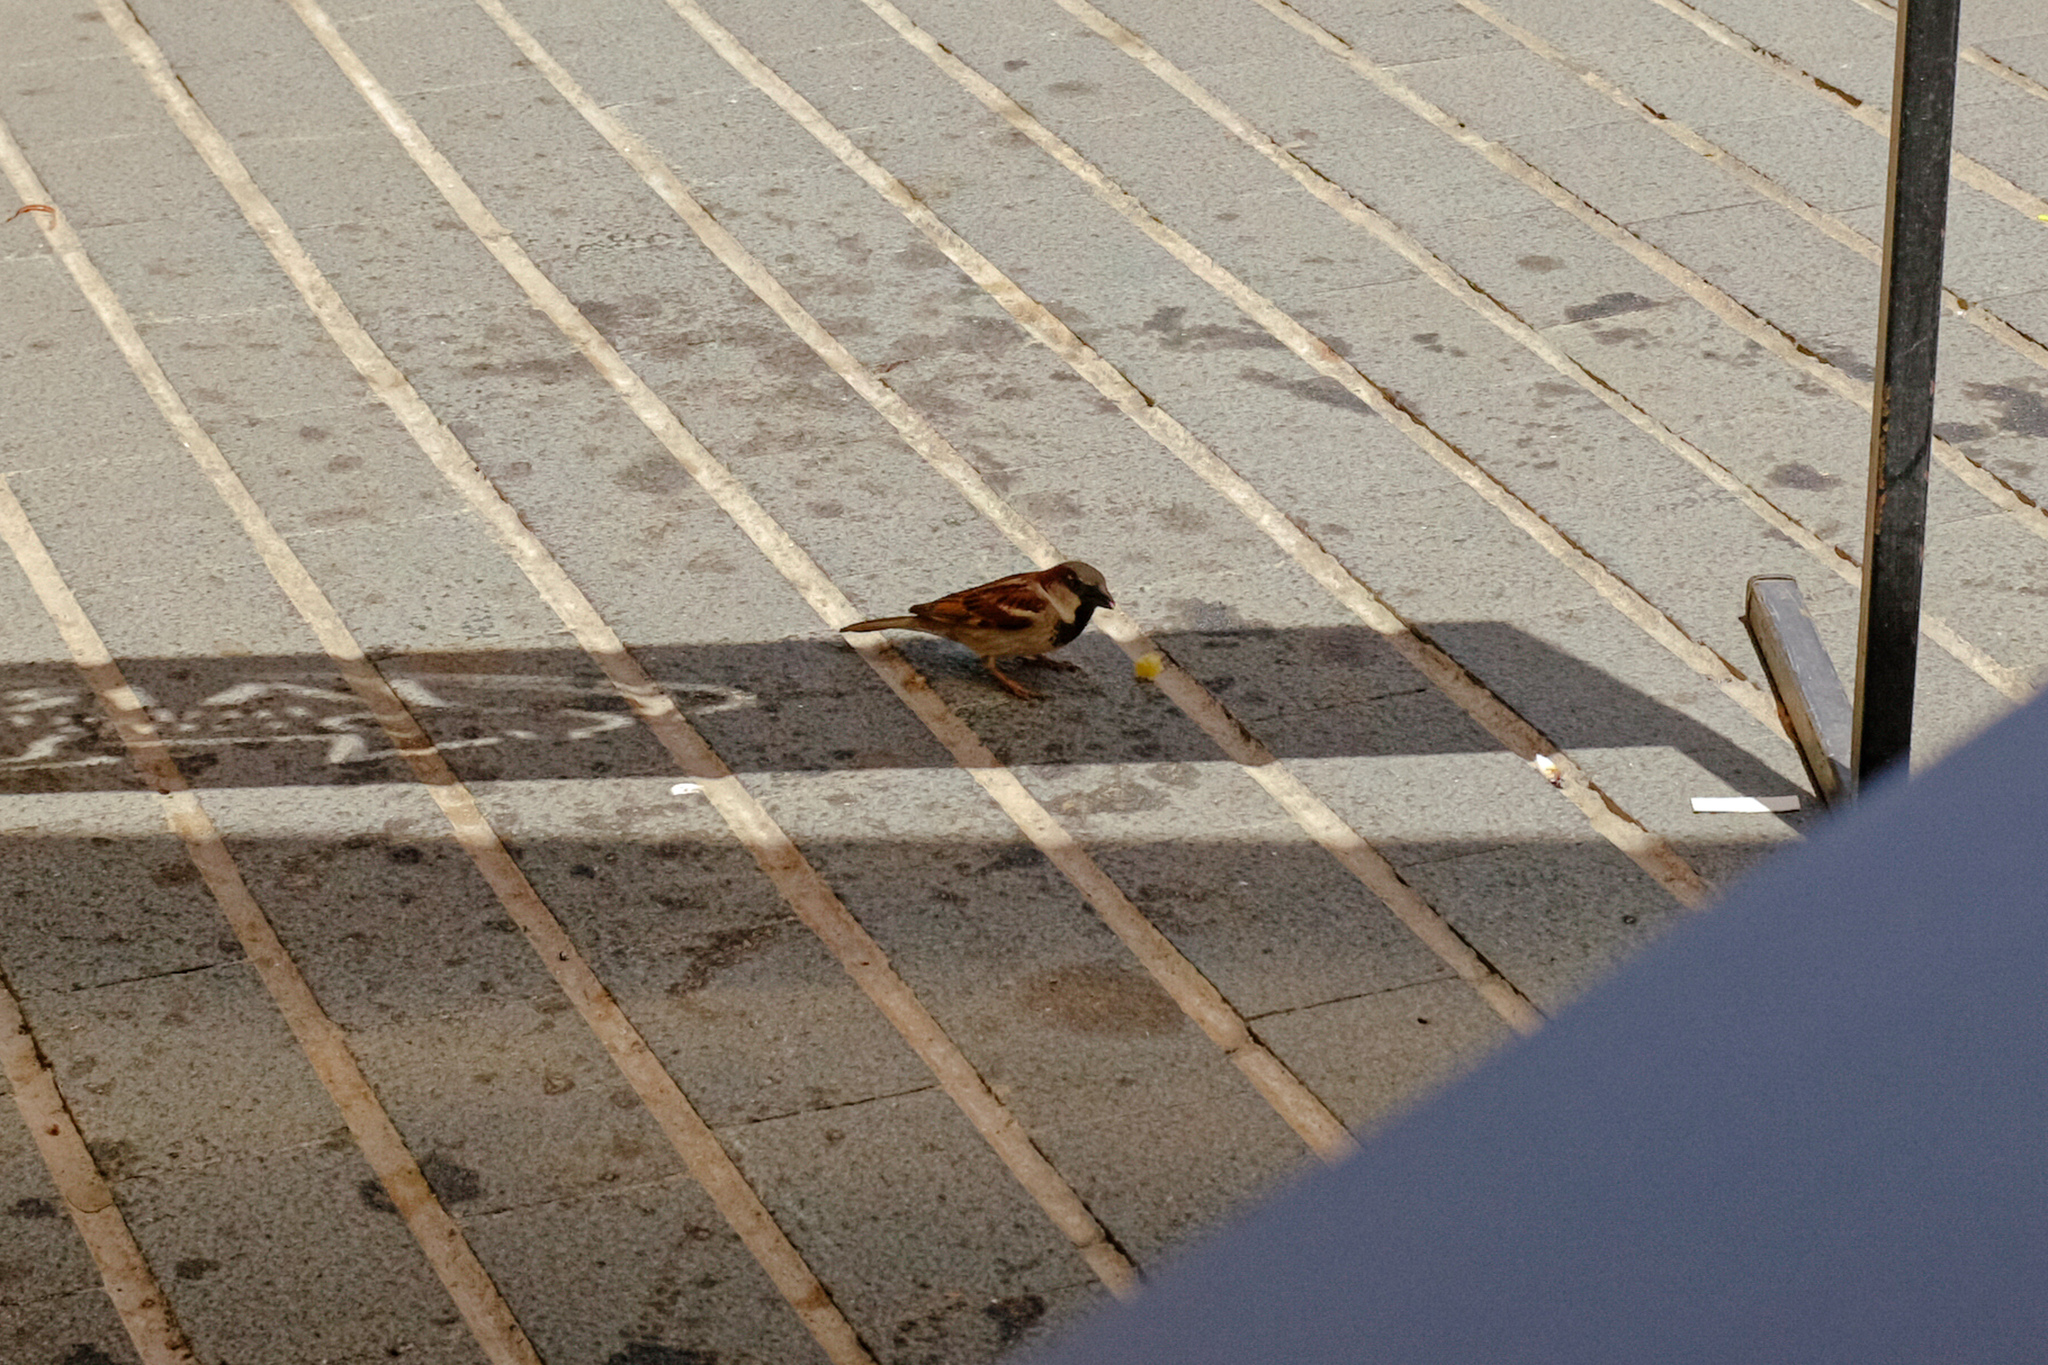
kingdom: Animalia
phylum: Chordata
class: Aves
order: Passeriformes
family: Passeridae
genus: Passer
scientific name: Passer domesticus
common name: House sparrow
